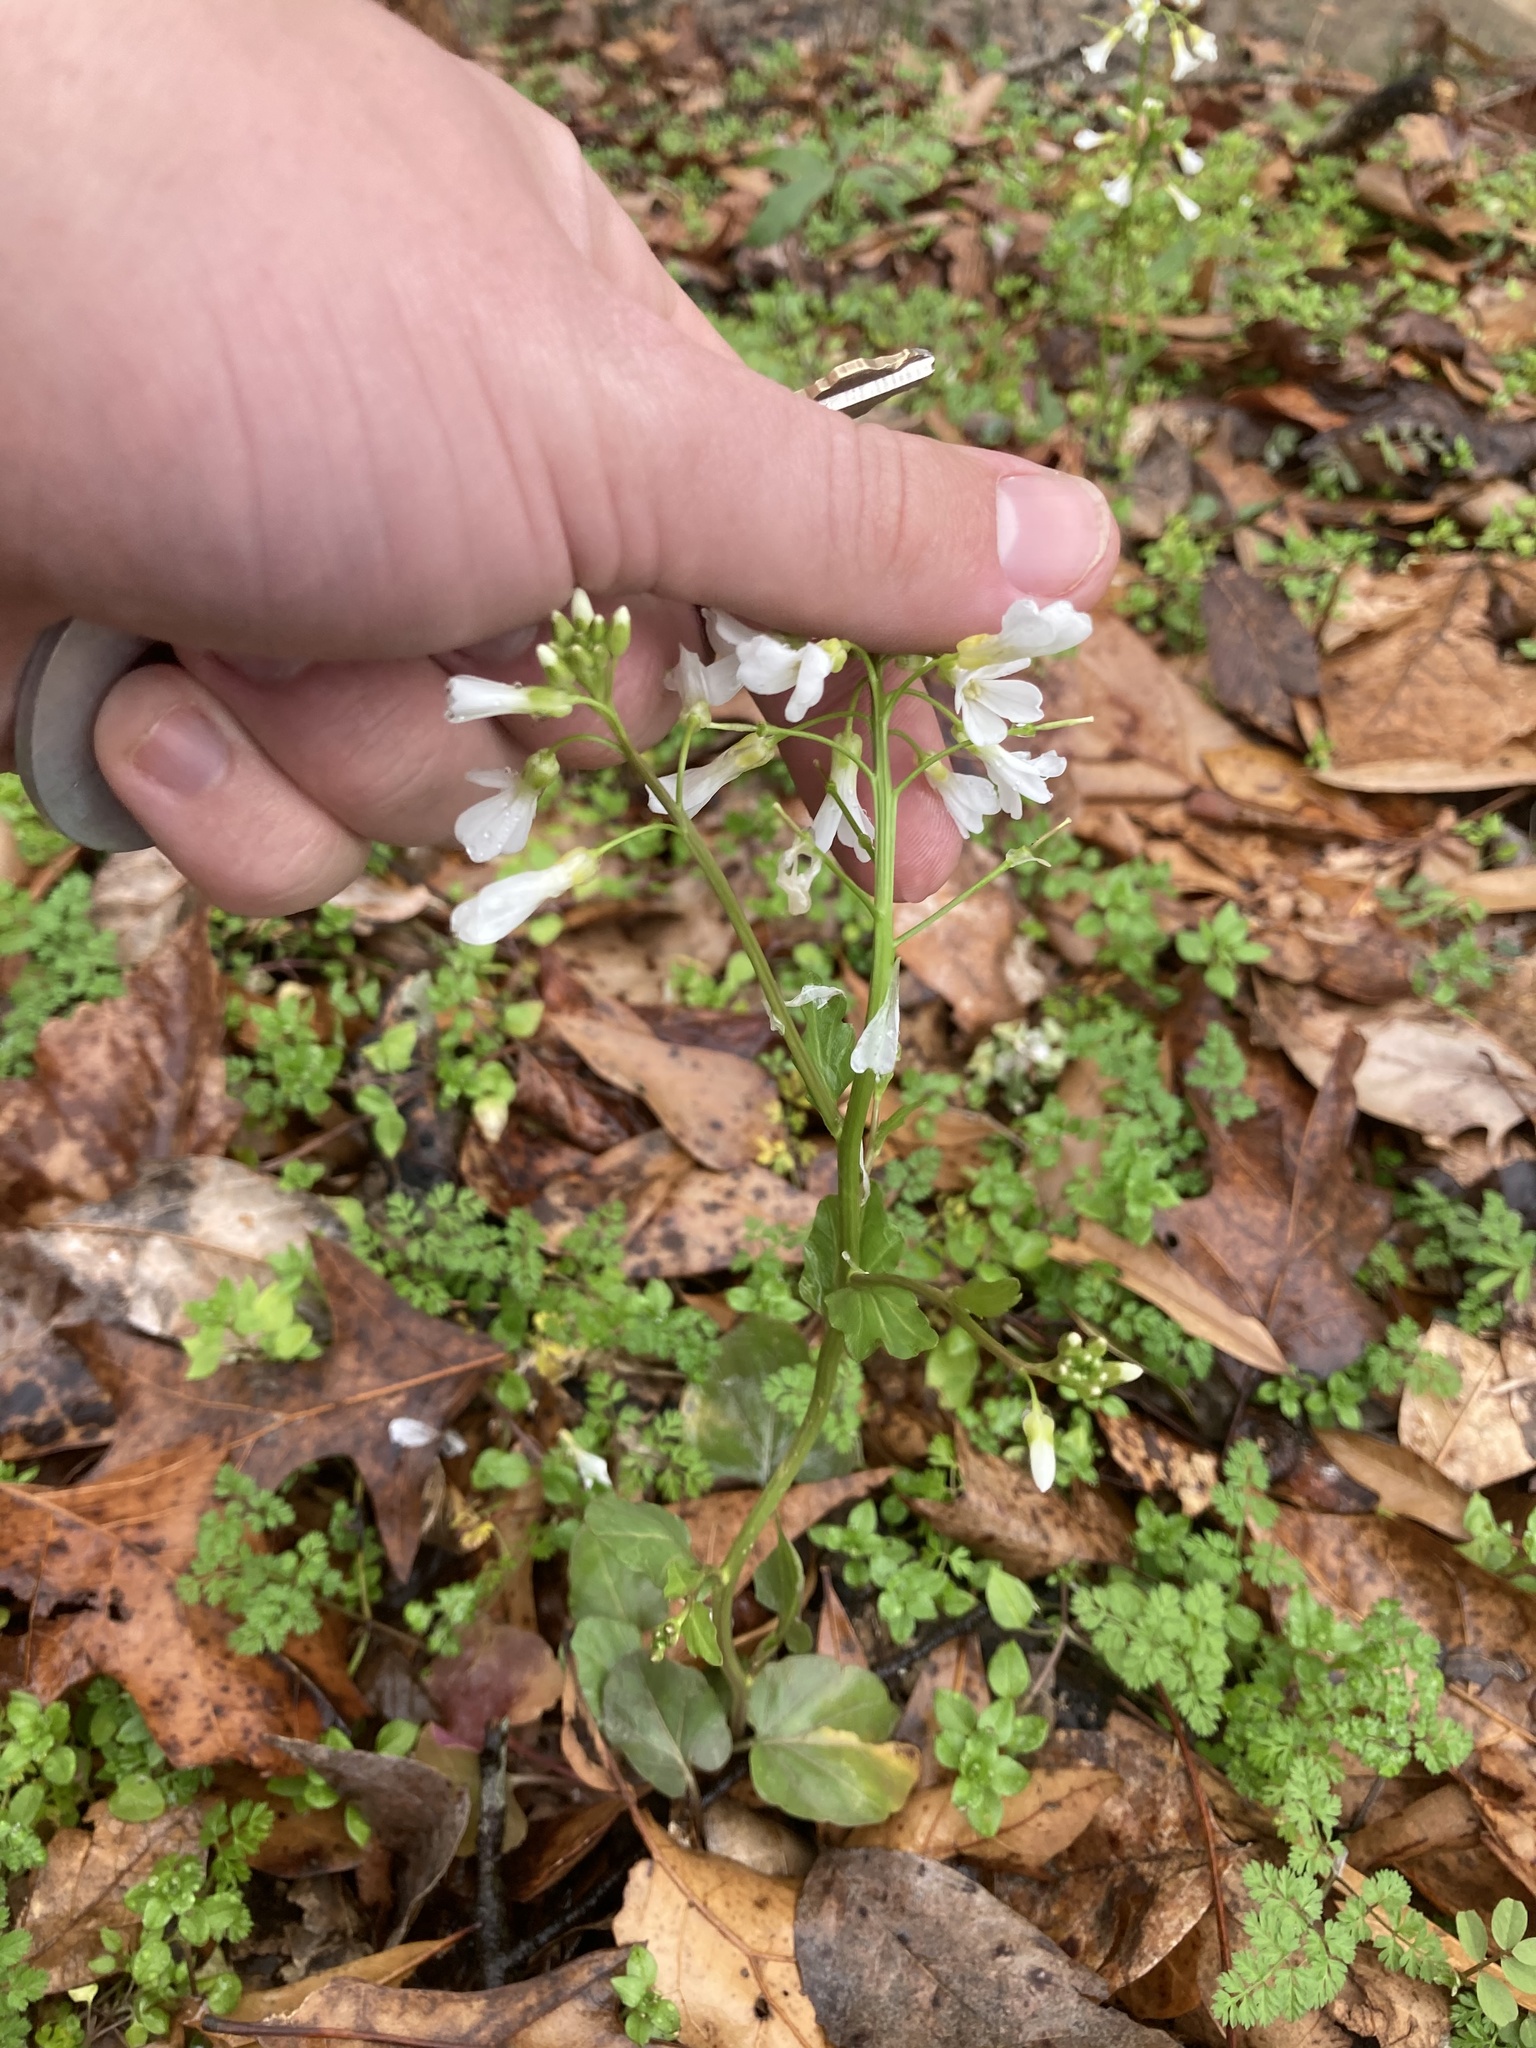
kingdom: Plantae
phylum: Tracheophyta
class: Magnoliopsida
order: Brassicales
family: Brassicaceae
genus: Cardamine
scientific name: Cardamine bulbosa
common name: Spring cress
